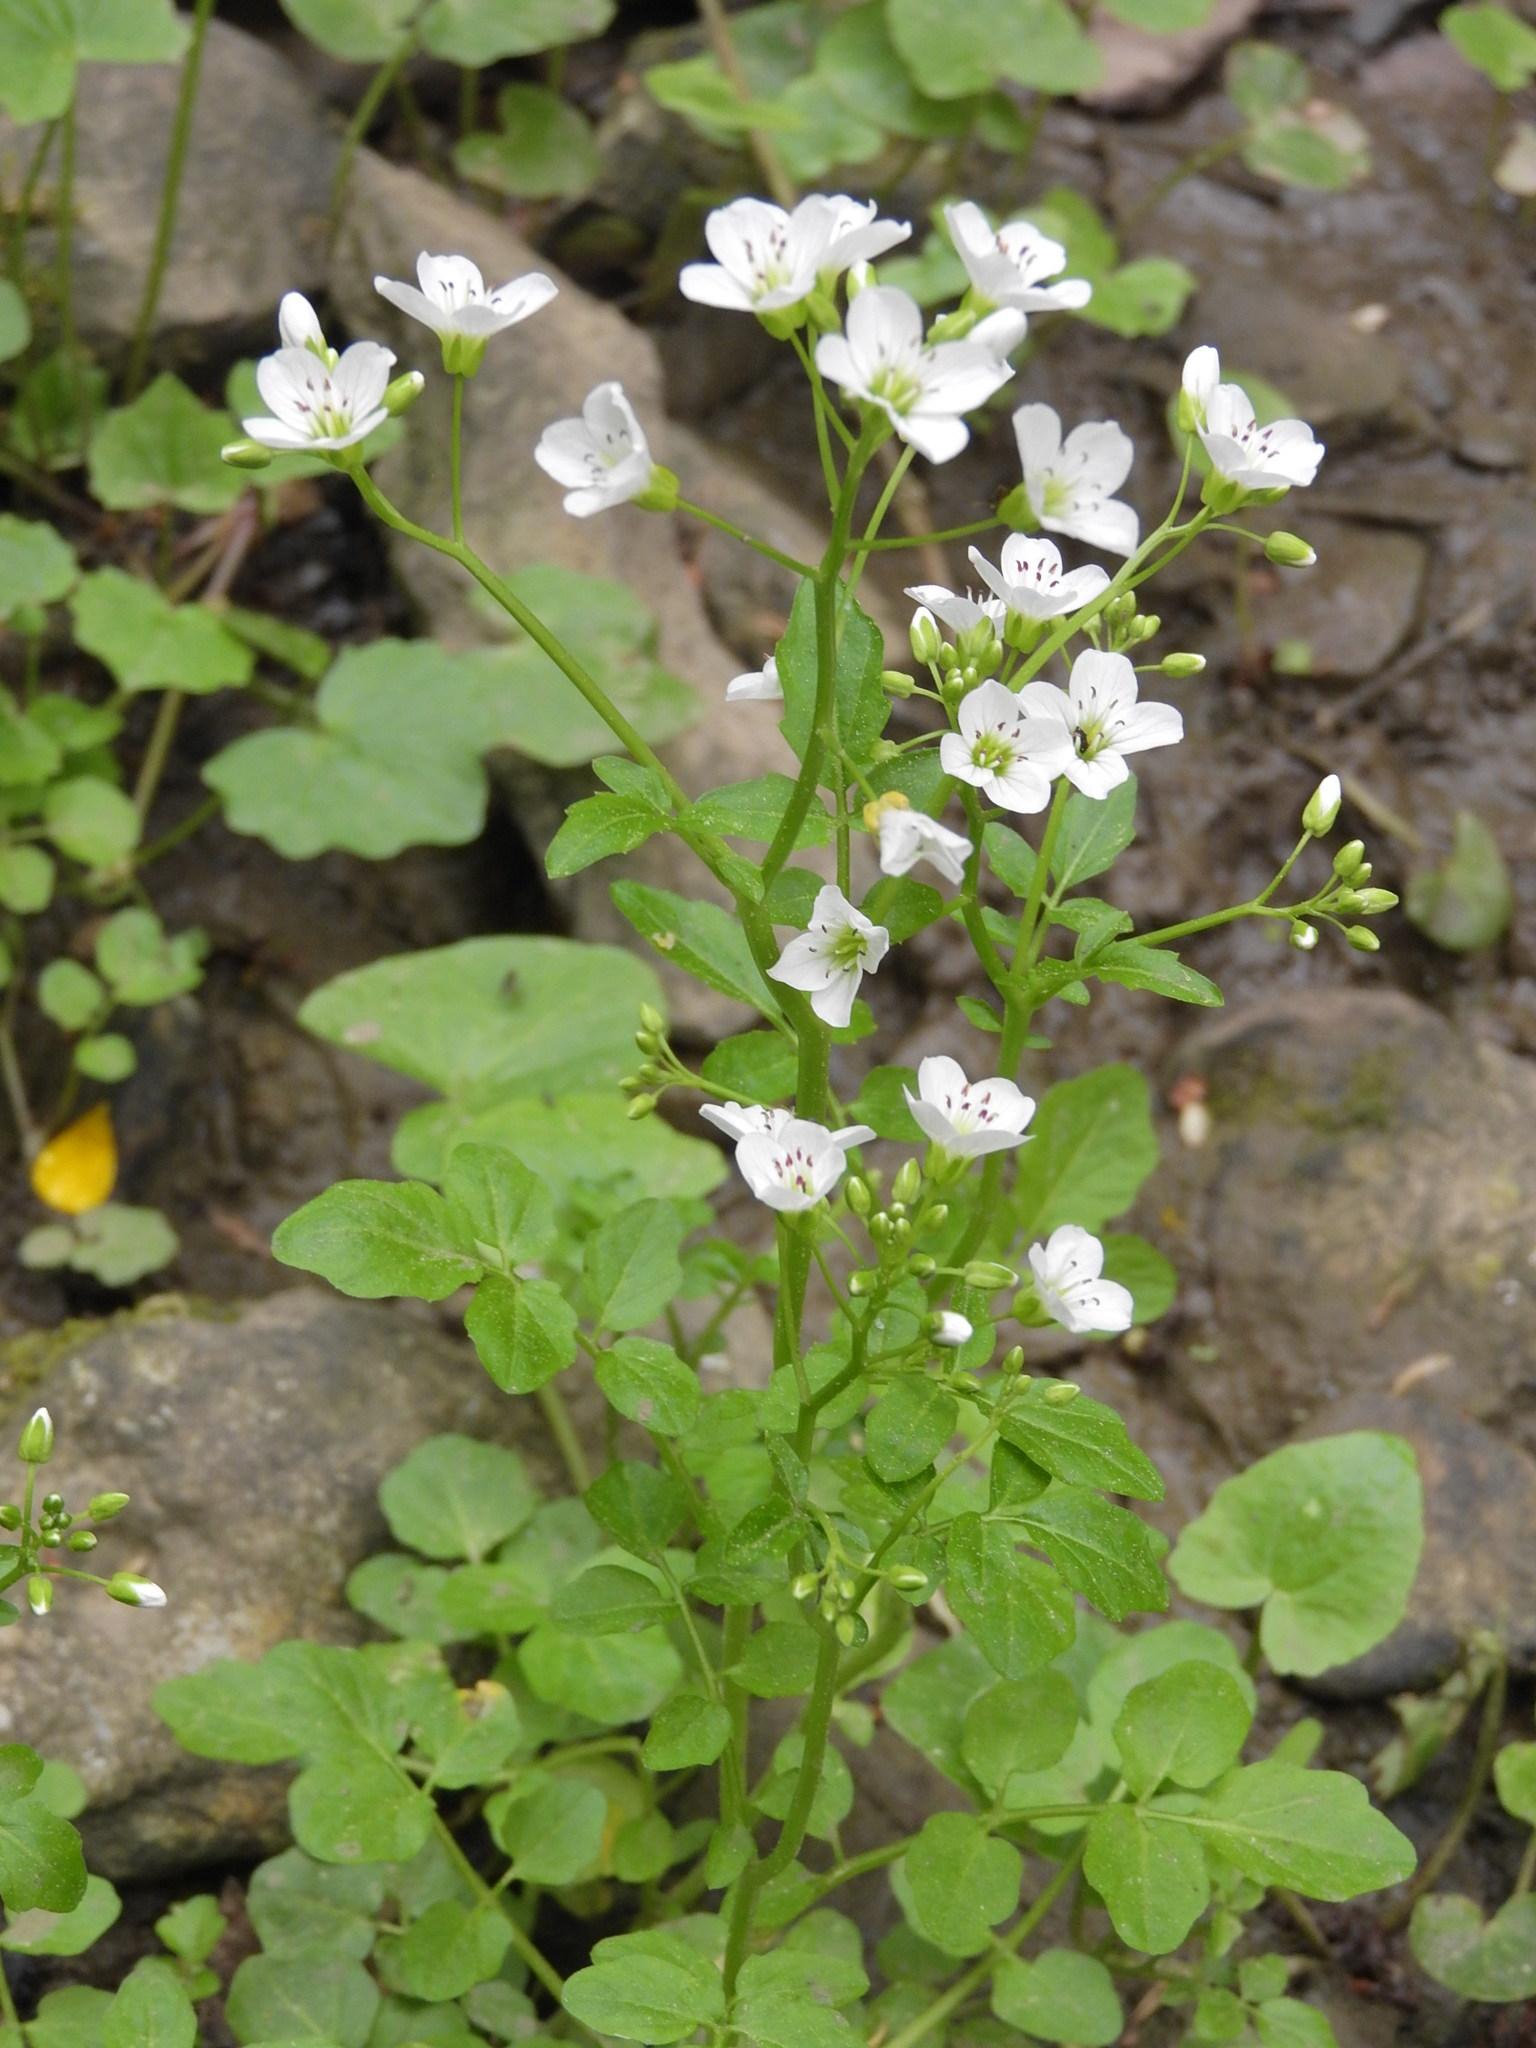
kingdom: Plantae
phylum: Tracheophyta
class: Magnoliopsida
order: Brassicales
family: Brassicaceae
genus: Cardamine
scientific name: Cardamine amara
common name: Large bitter-cress
